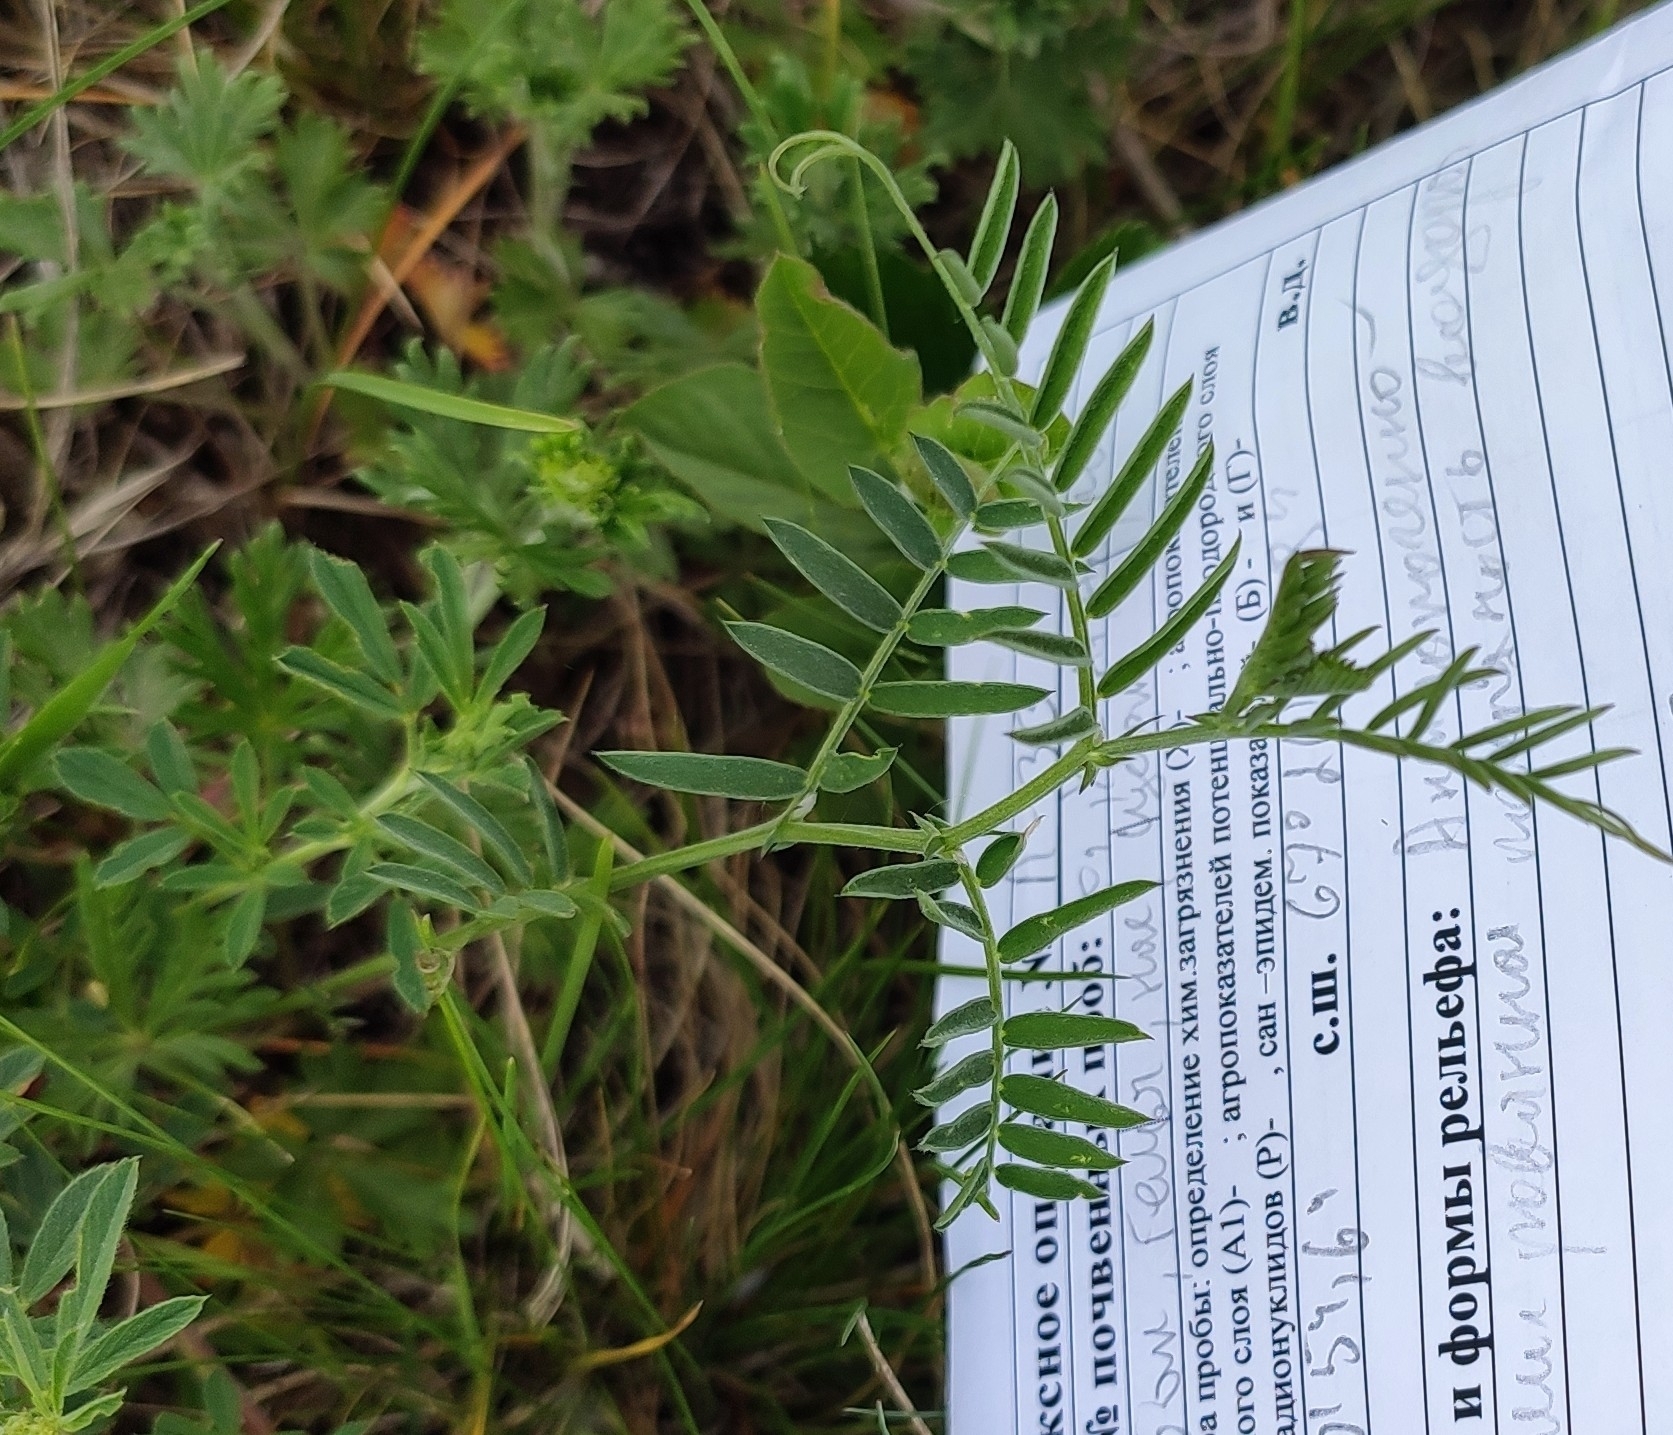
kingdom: Plantae
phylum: Tracheophyta
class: Magnoliopsida
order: Fabales
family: Fabaceae
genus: Vicia
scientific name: Vicia cracca
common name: Bird vetch
